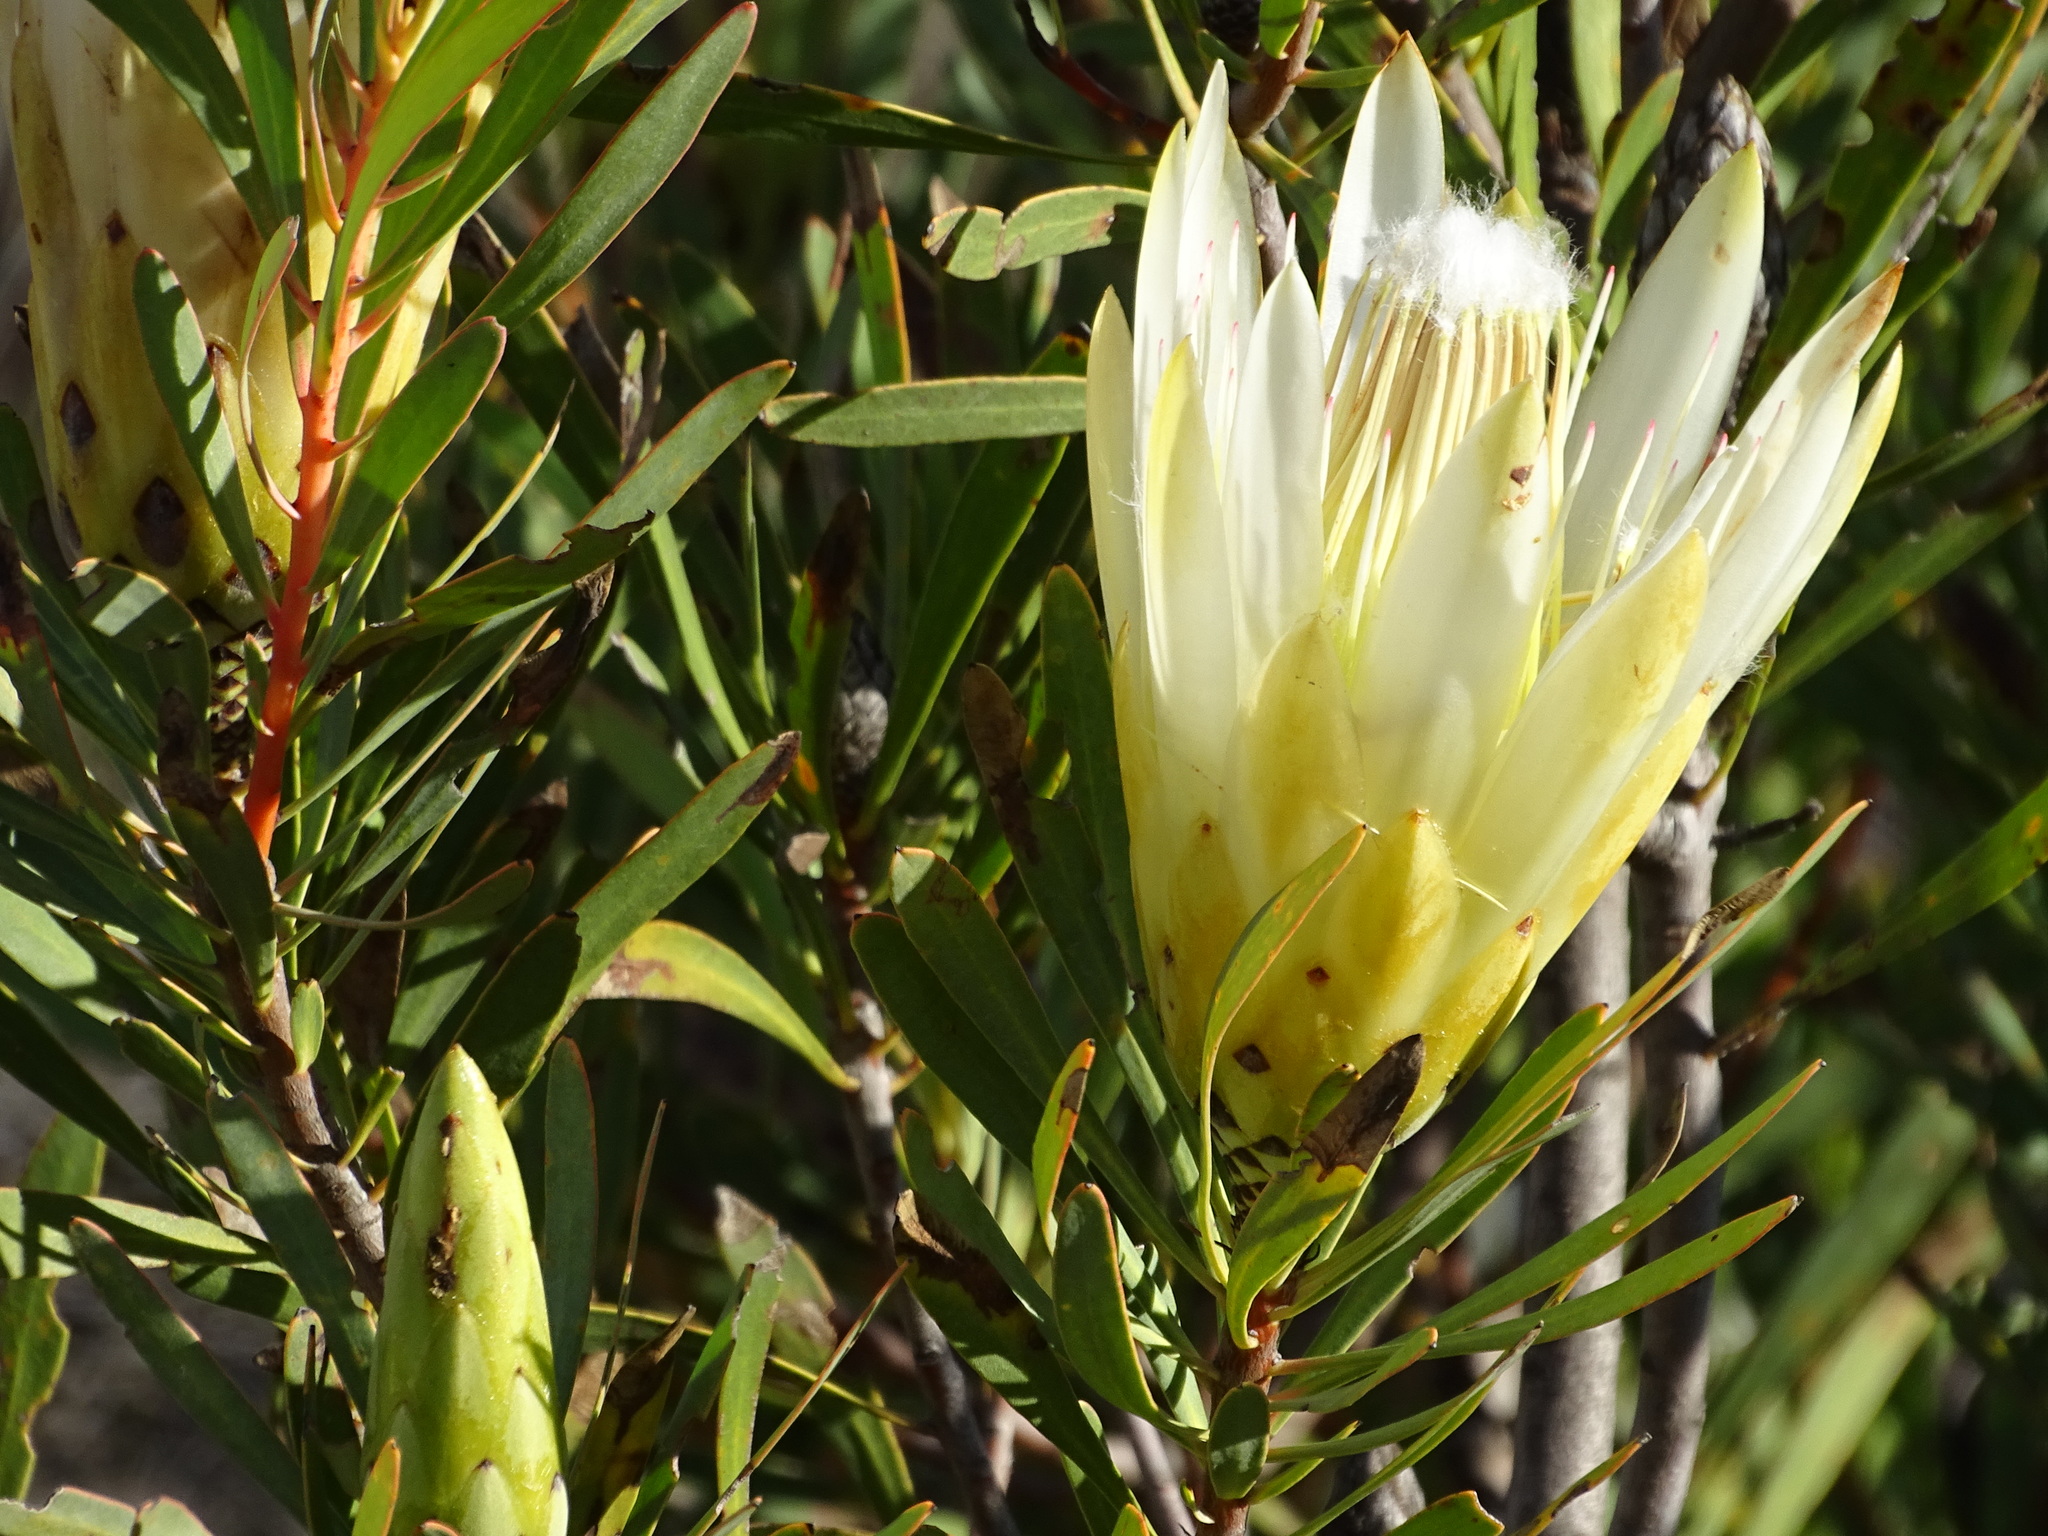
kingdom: Plantae
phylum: Tracheophyta
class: Magnoliopsida
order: Proteales
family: Proteaceae
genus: Protea
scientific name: Protea repens
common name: Sugarbush
